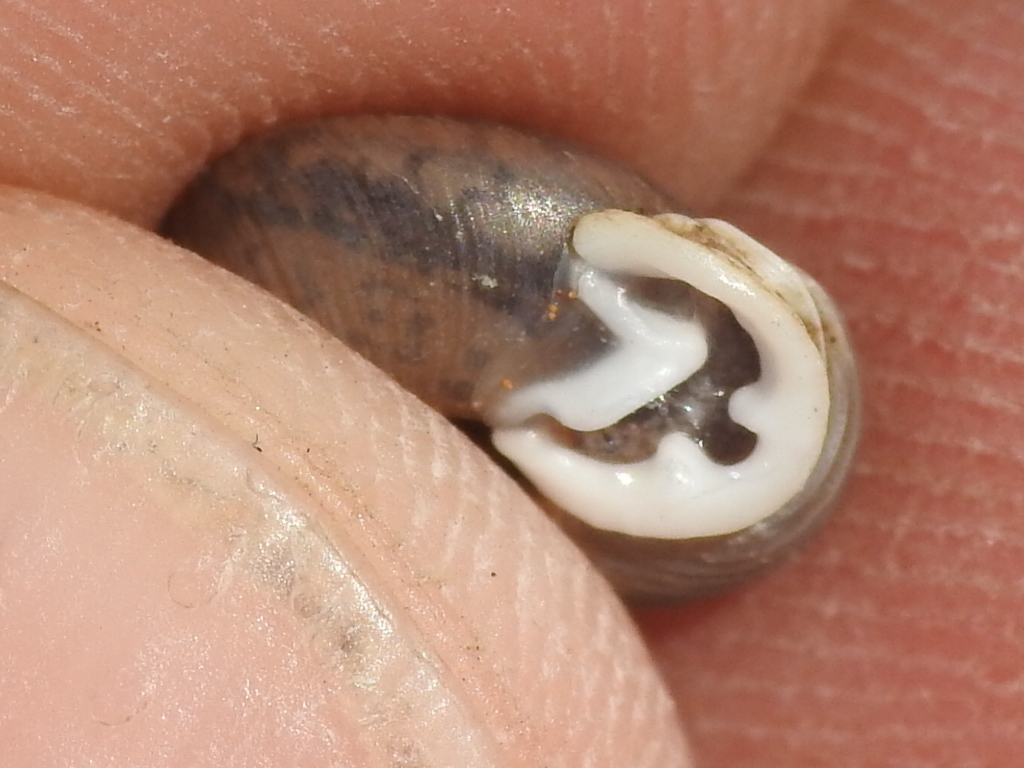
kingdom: Animalia
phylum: Mollusca
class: Gastropoda
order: Stylommatophora
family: Polygyridae
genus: Linisa
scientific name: Linisa texasiana
